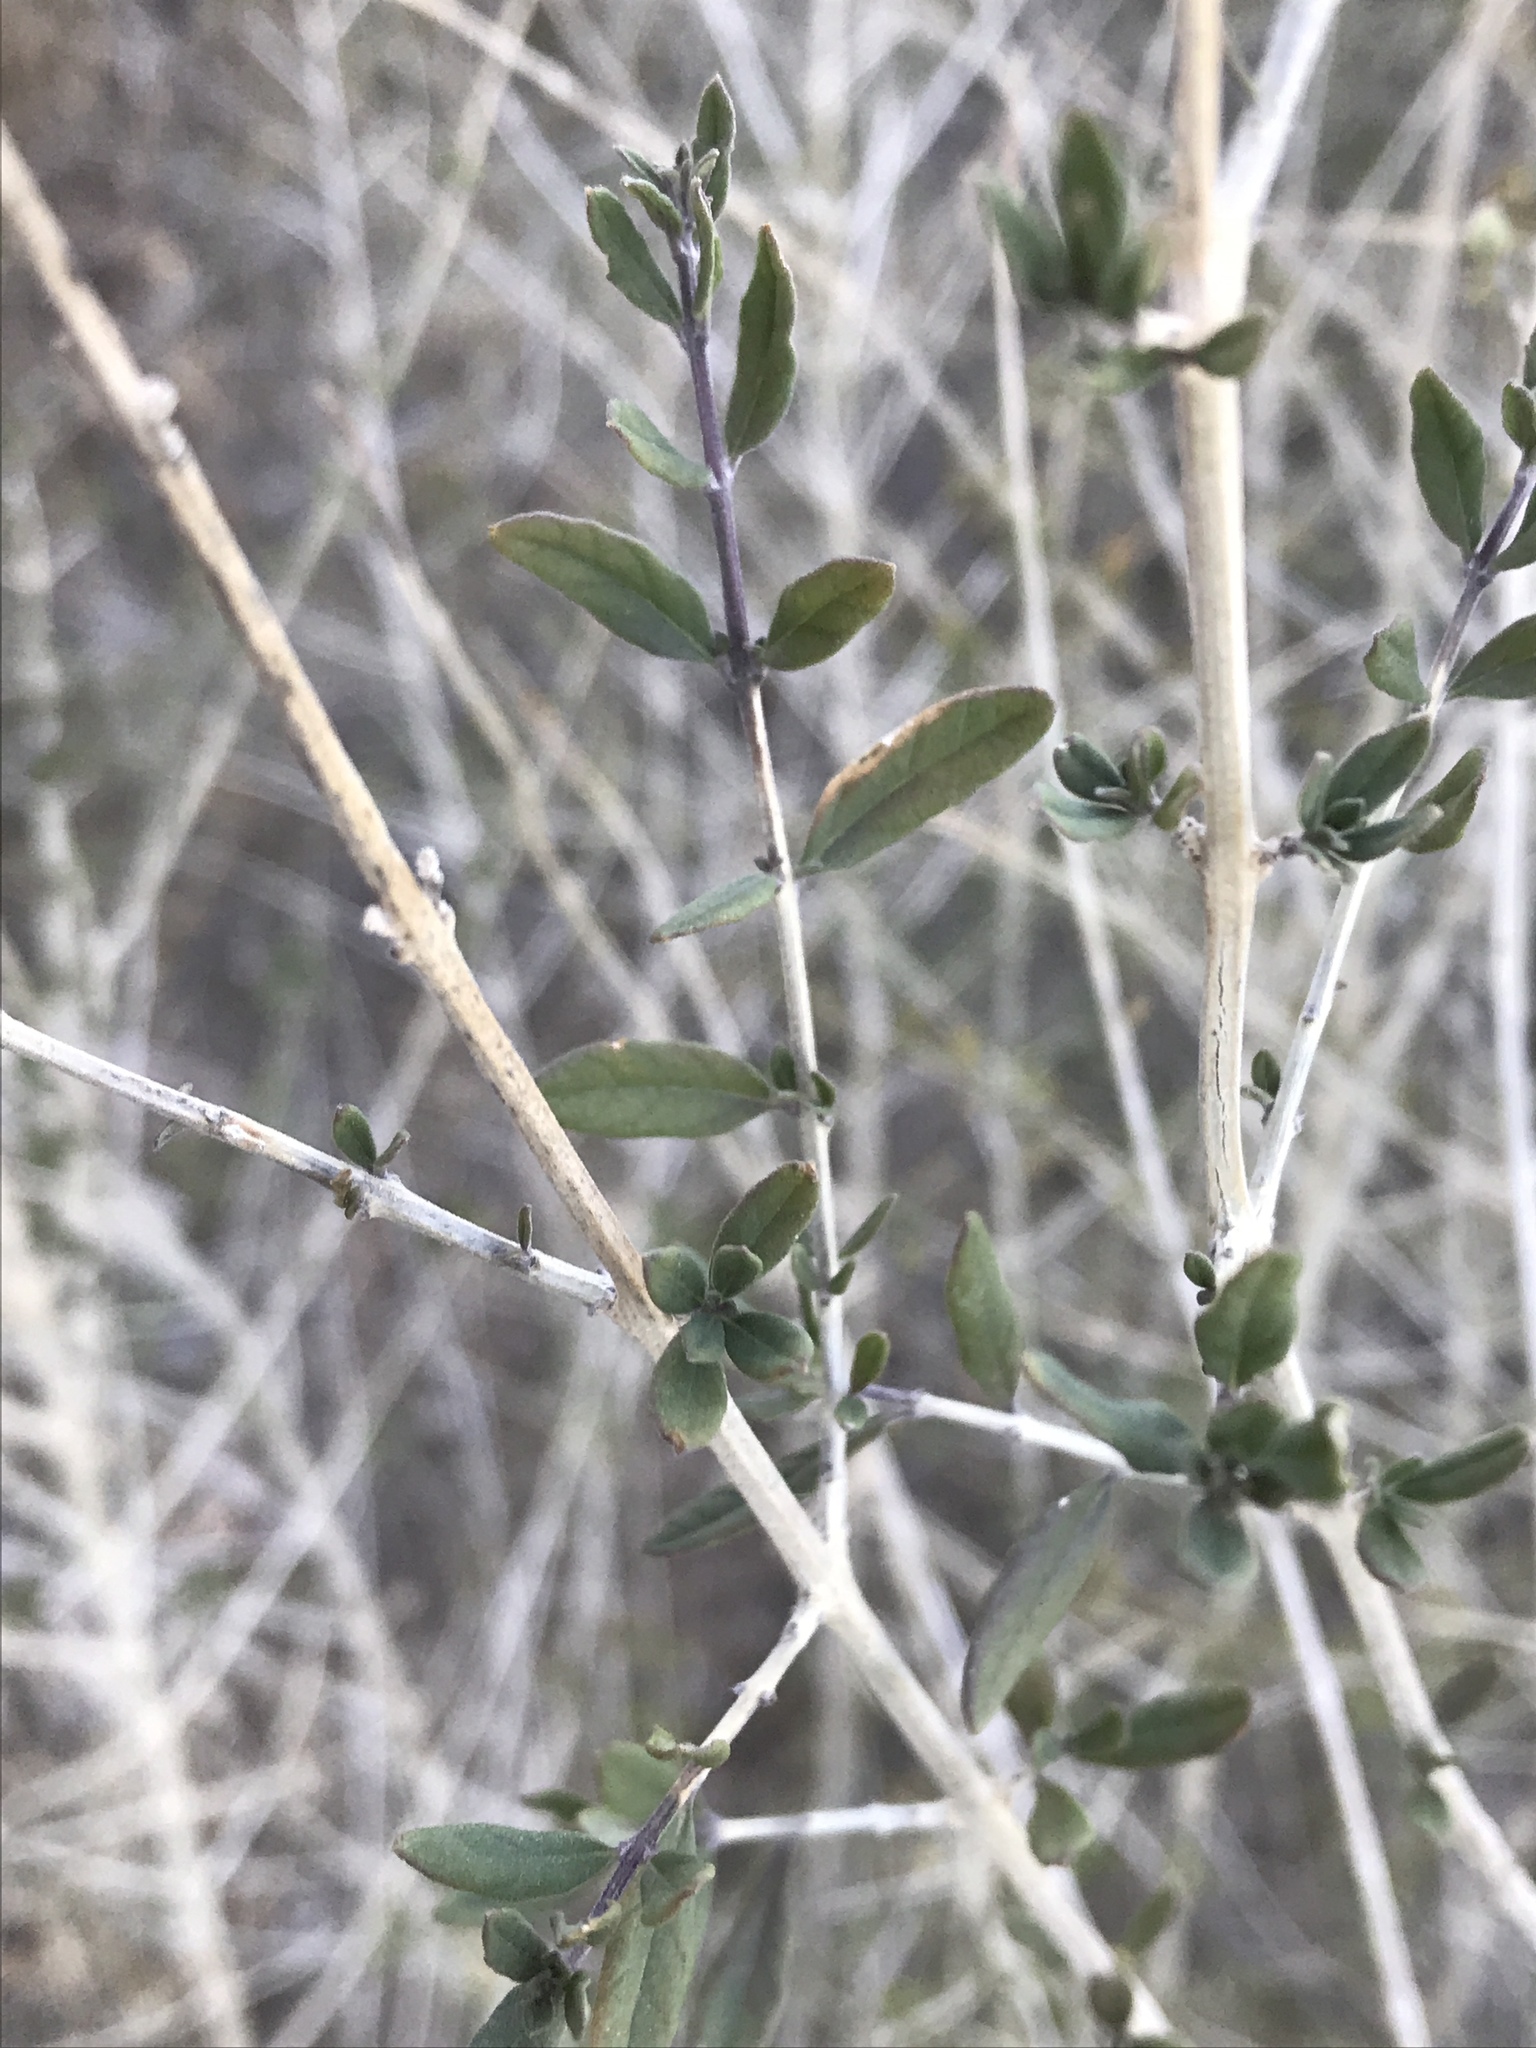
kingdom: Plantae
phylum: Tracheophyta
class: Magnoliopsida
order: Lamiales
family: Verbenaceae
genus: Aloysia
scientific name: Aloysia gratissima
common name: Common bee-brush
